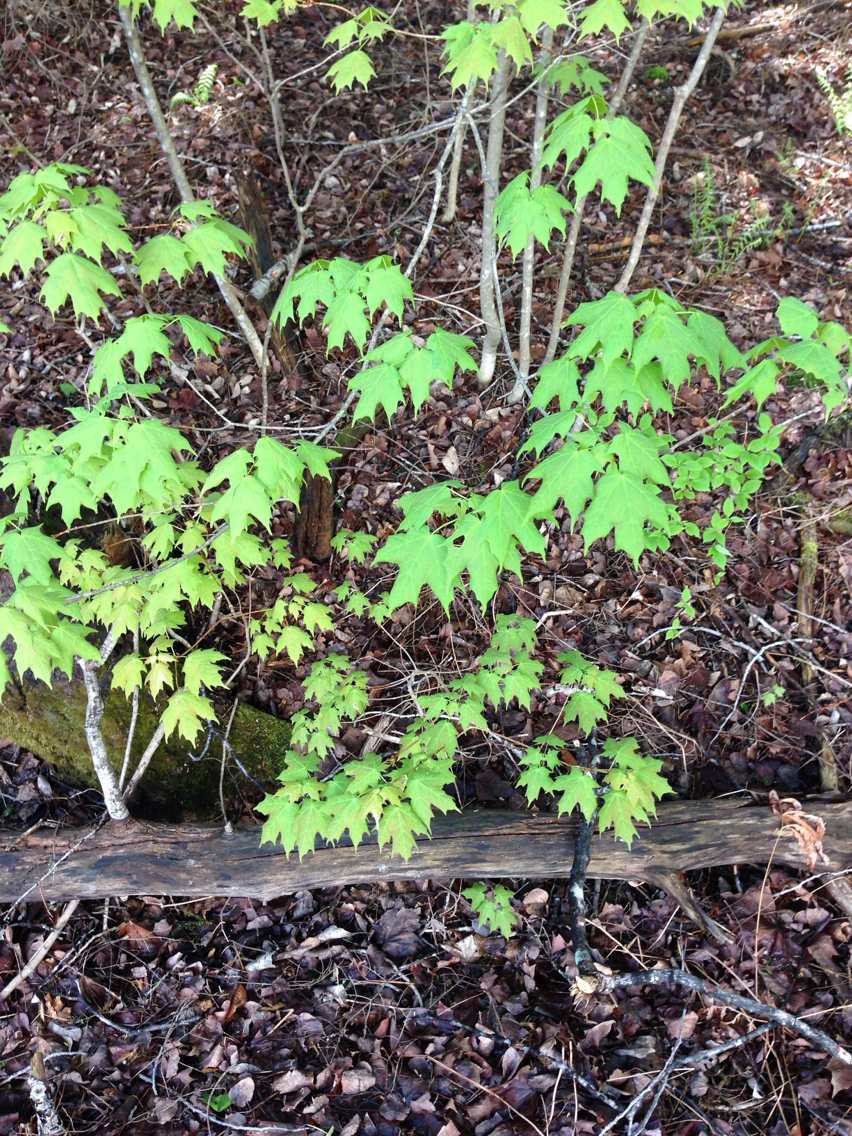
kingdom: Plantae
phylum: Tracheophyta
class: Magnoliopsida
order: Sapindales
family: Sapindaceae
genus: Acer
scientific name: Acer saccharum
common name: Sugar maple
